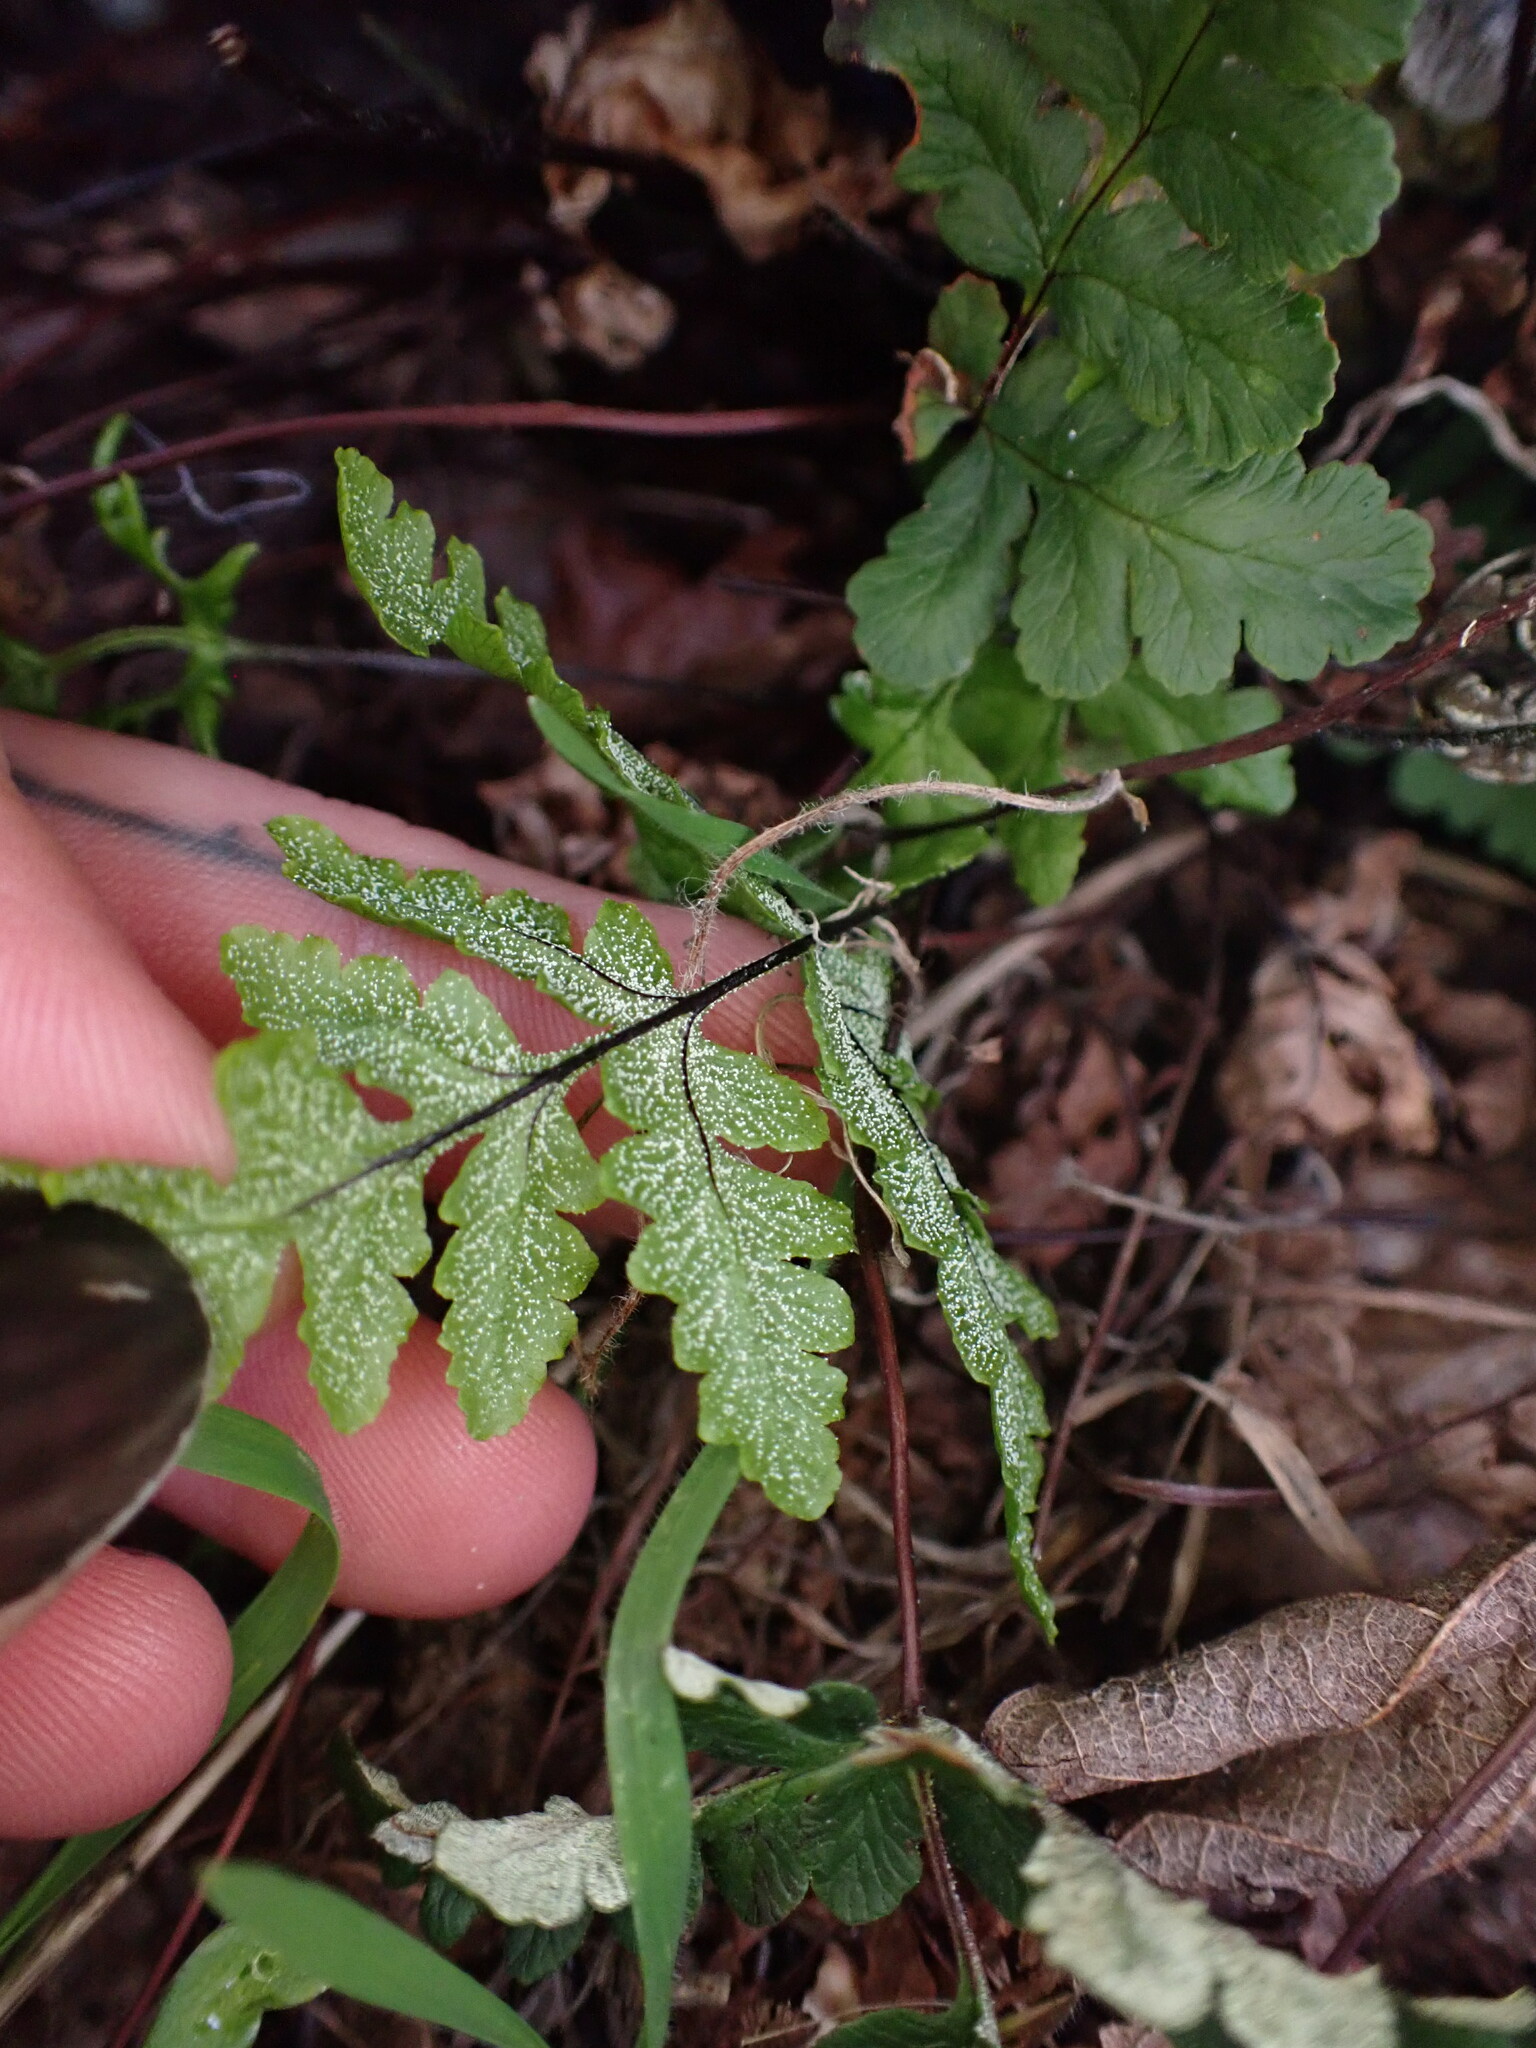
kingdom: Plantae
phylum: Tracheophyta
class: Polypodiopsida
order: Polypodiales
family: Pteridaceae
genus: Pentagramma
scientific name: Pentagramma triangularis
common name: Gold fern
